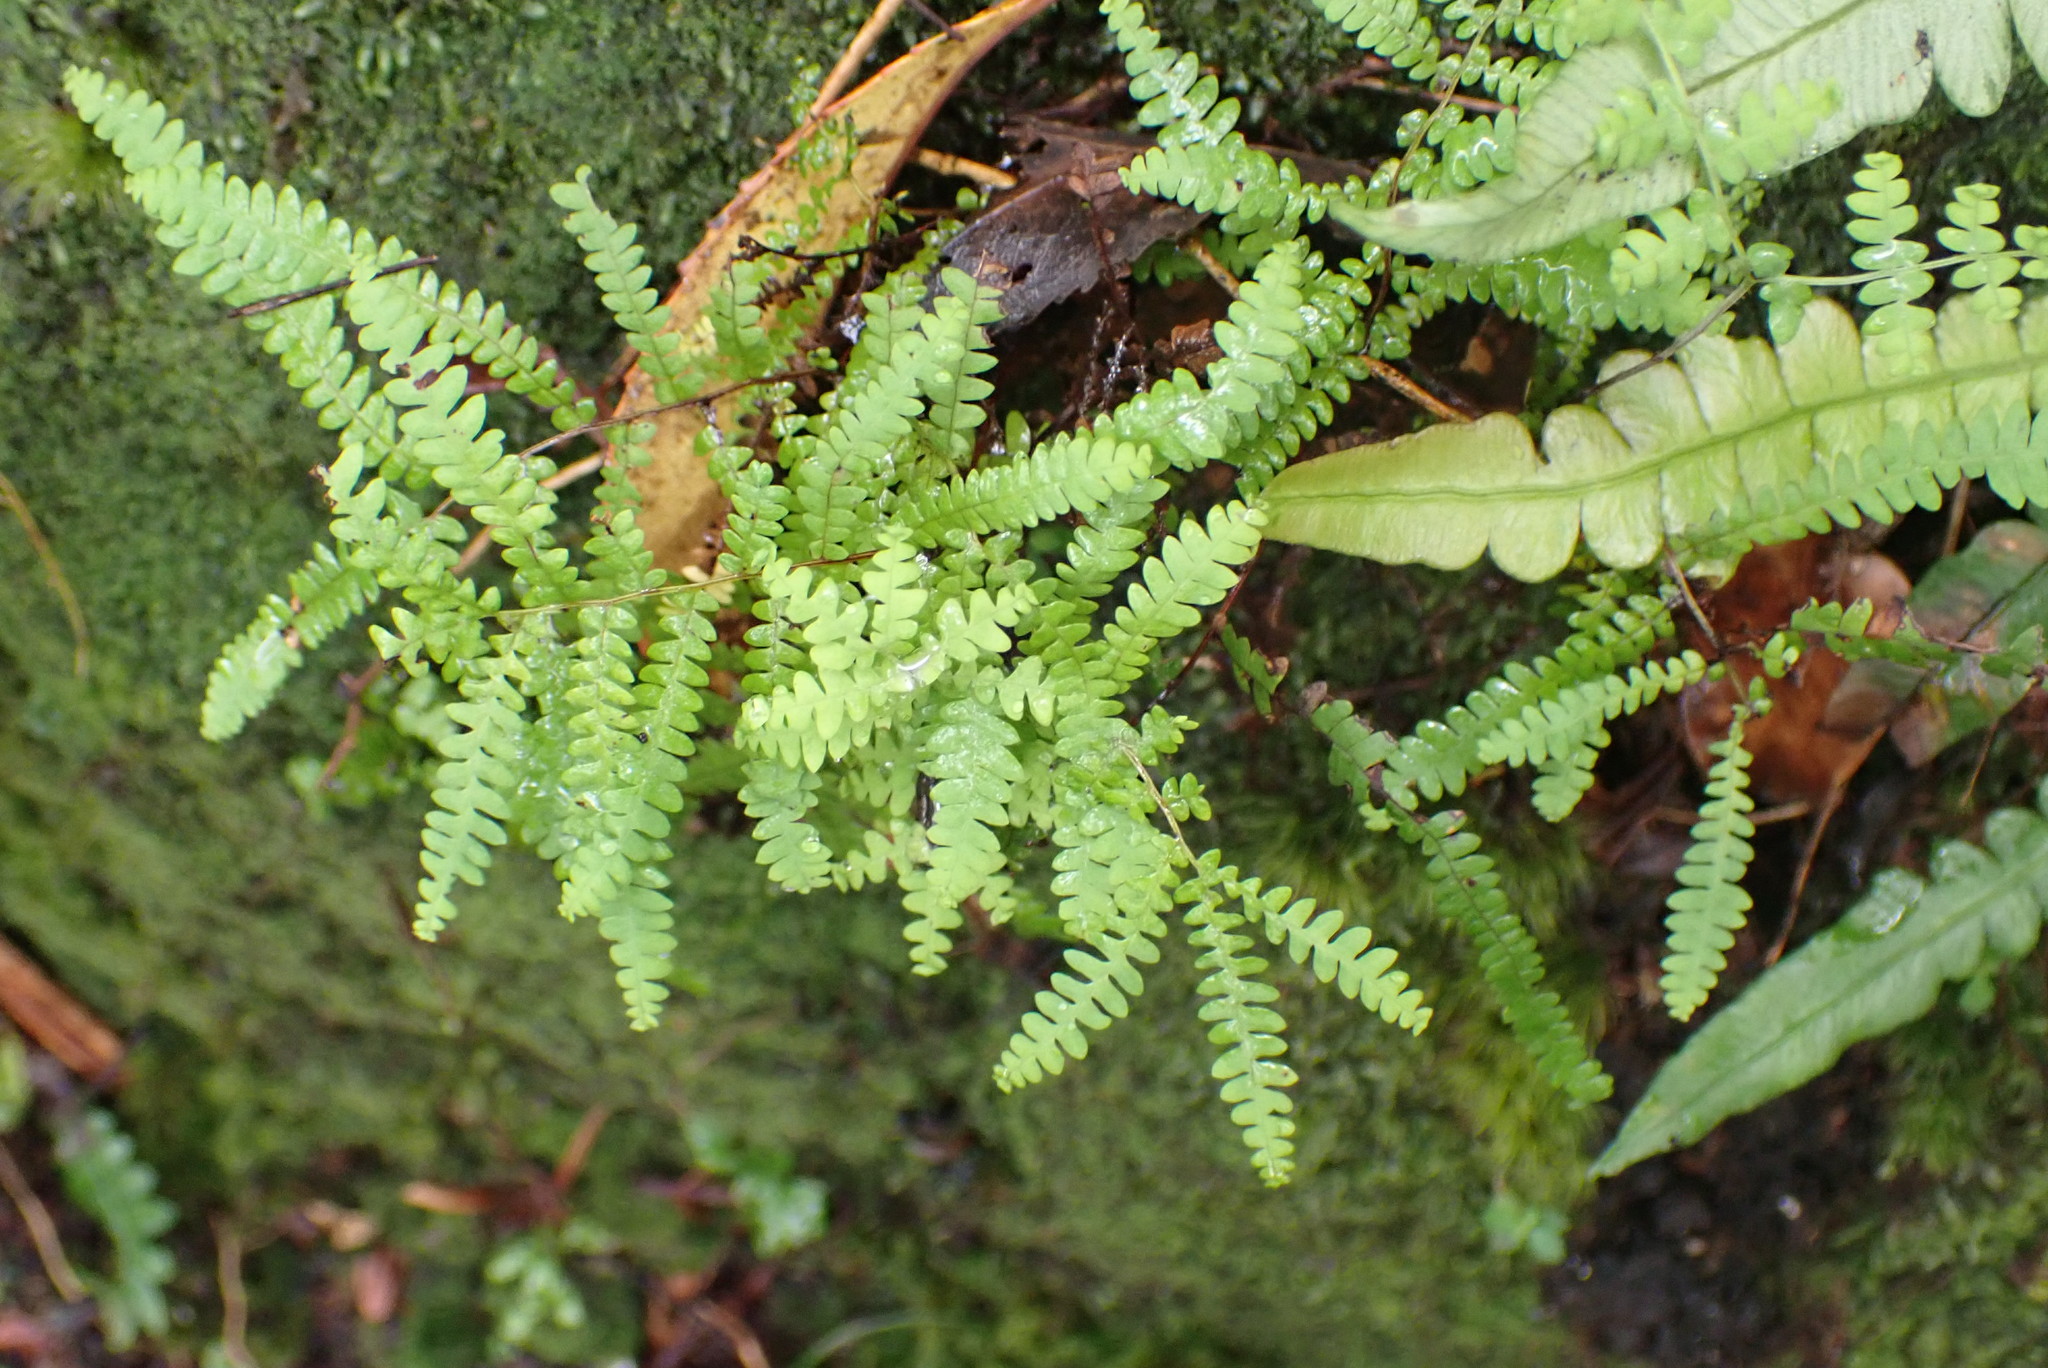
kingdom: Plantae
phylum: Tracheophyta
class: Polypodiopsida
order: Gleicheniales
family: Gleicheniaceae
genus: Gleichenia
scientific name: Gleichenia polypodioides
